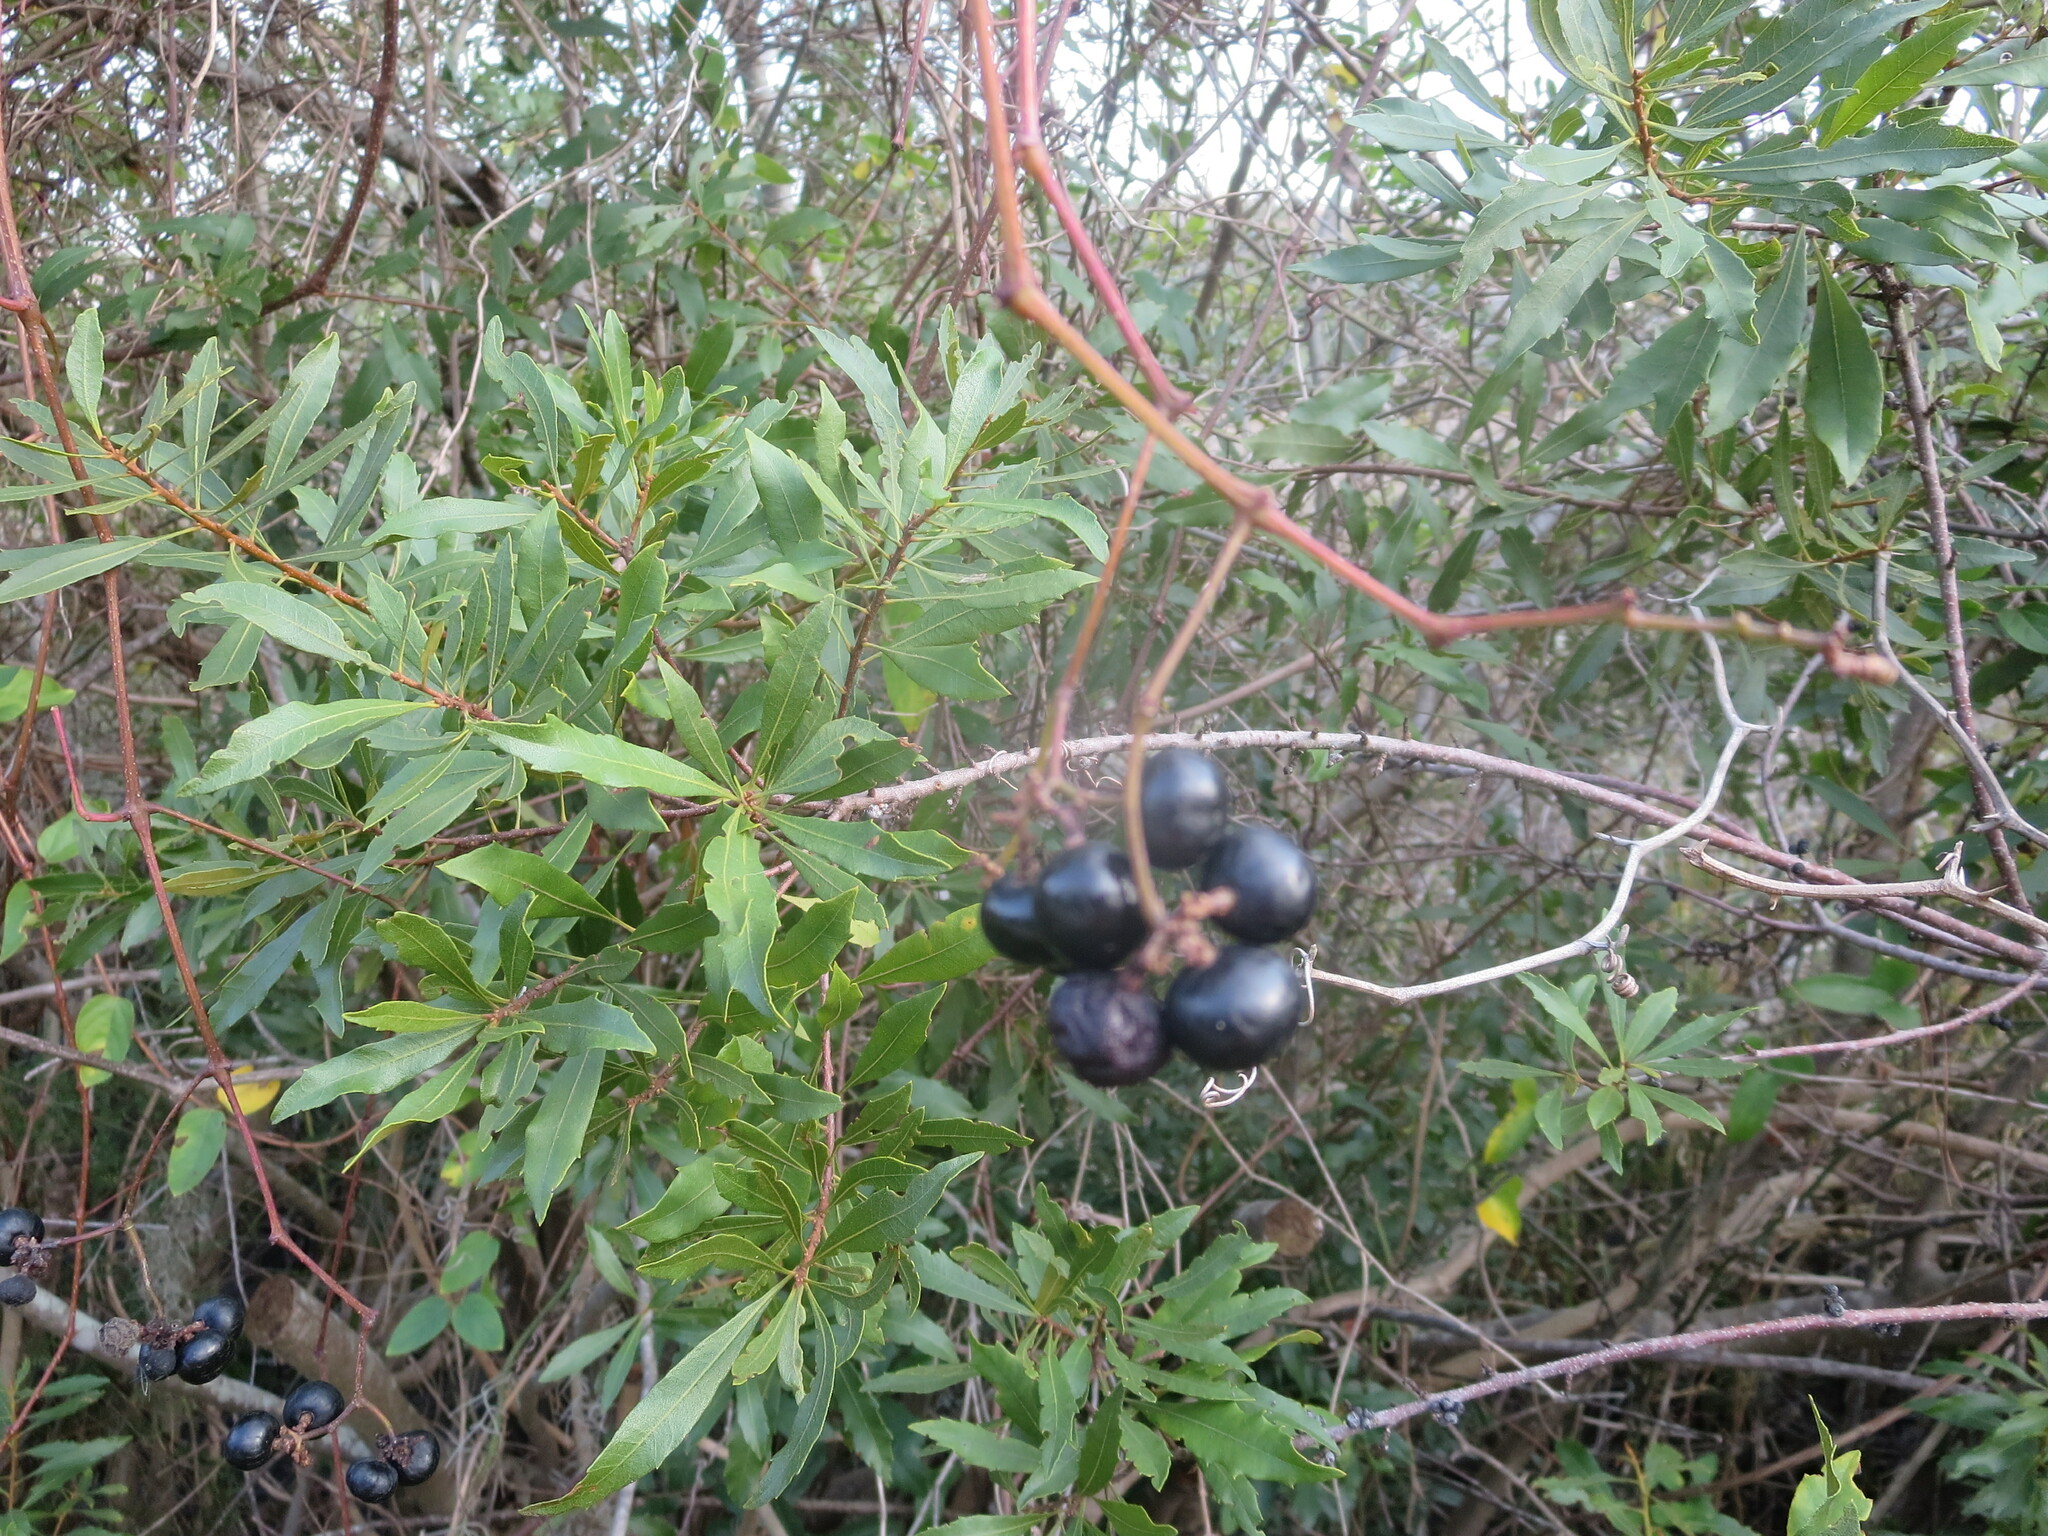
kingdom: Plantae
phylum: Tracheophyta
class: Magnoliopsida
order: Vitales
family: Vitaceae
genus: Nekemias
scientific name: Nekemias arborea
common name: Peppervine
